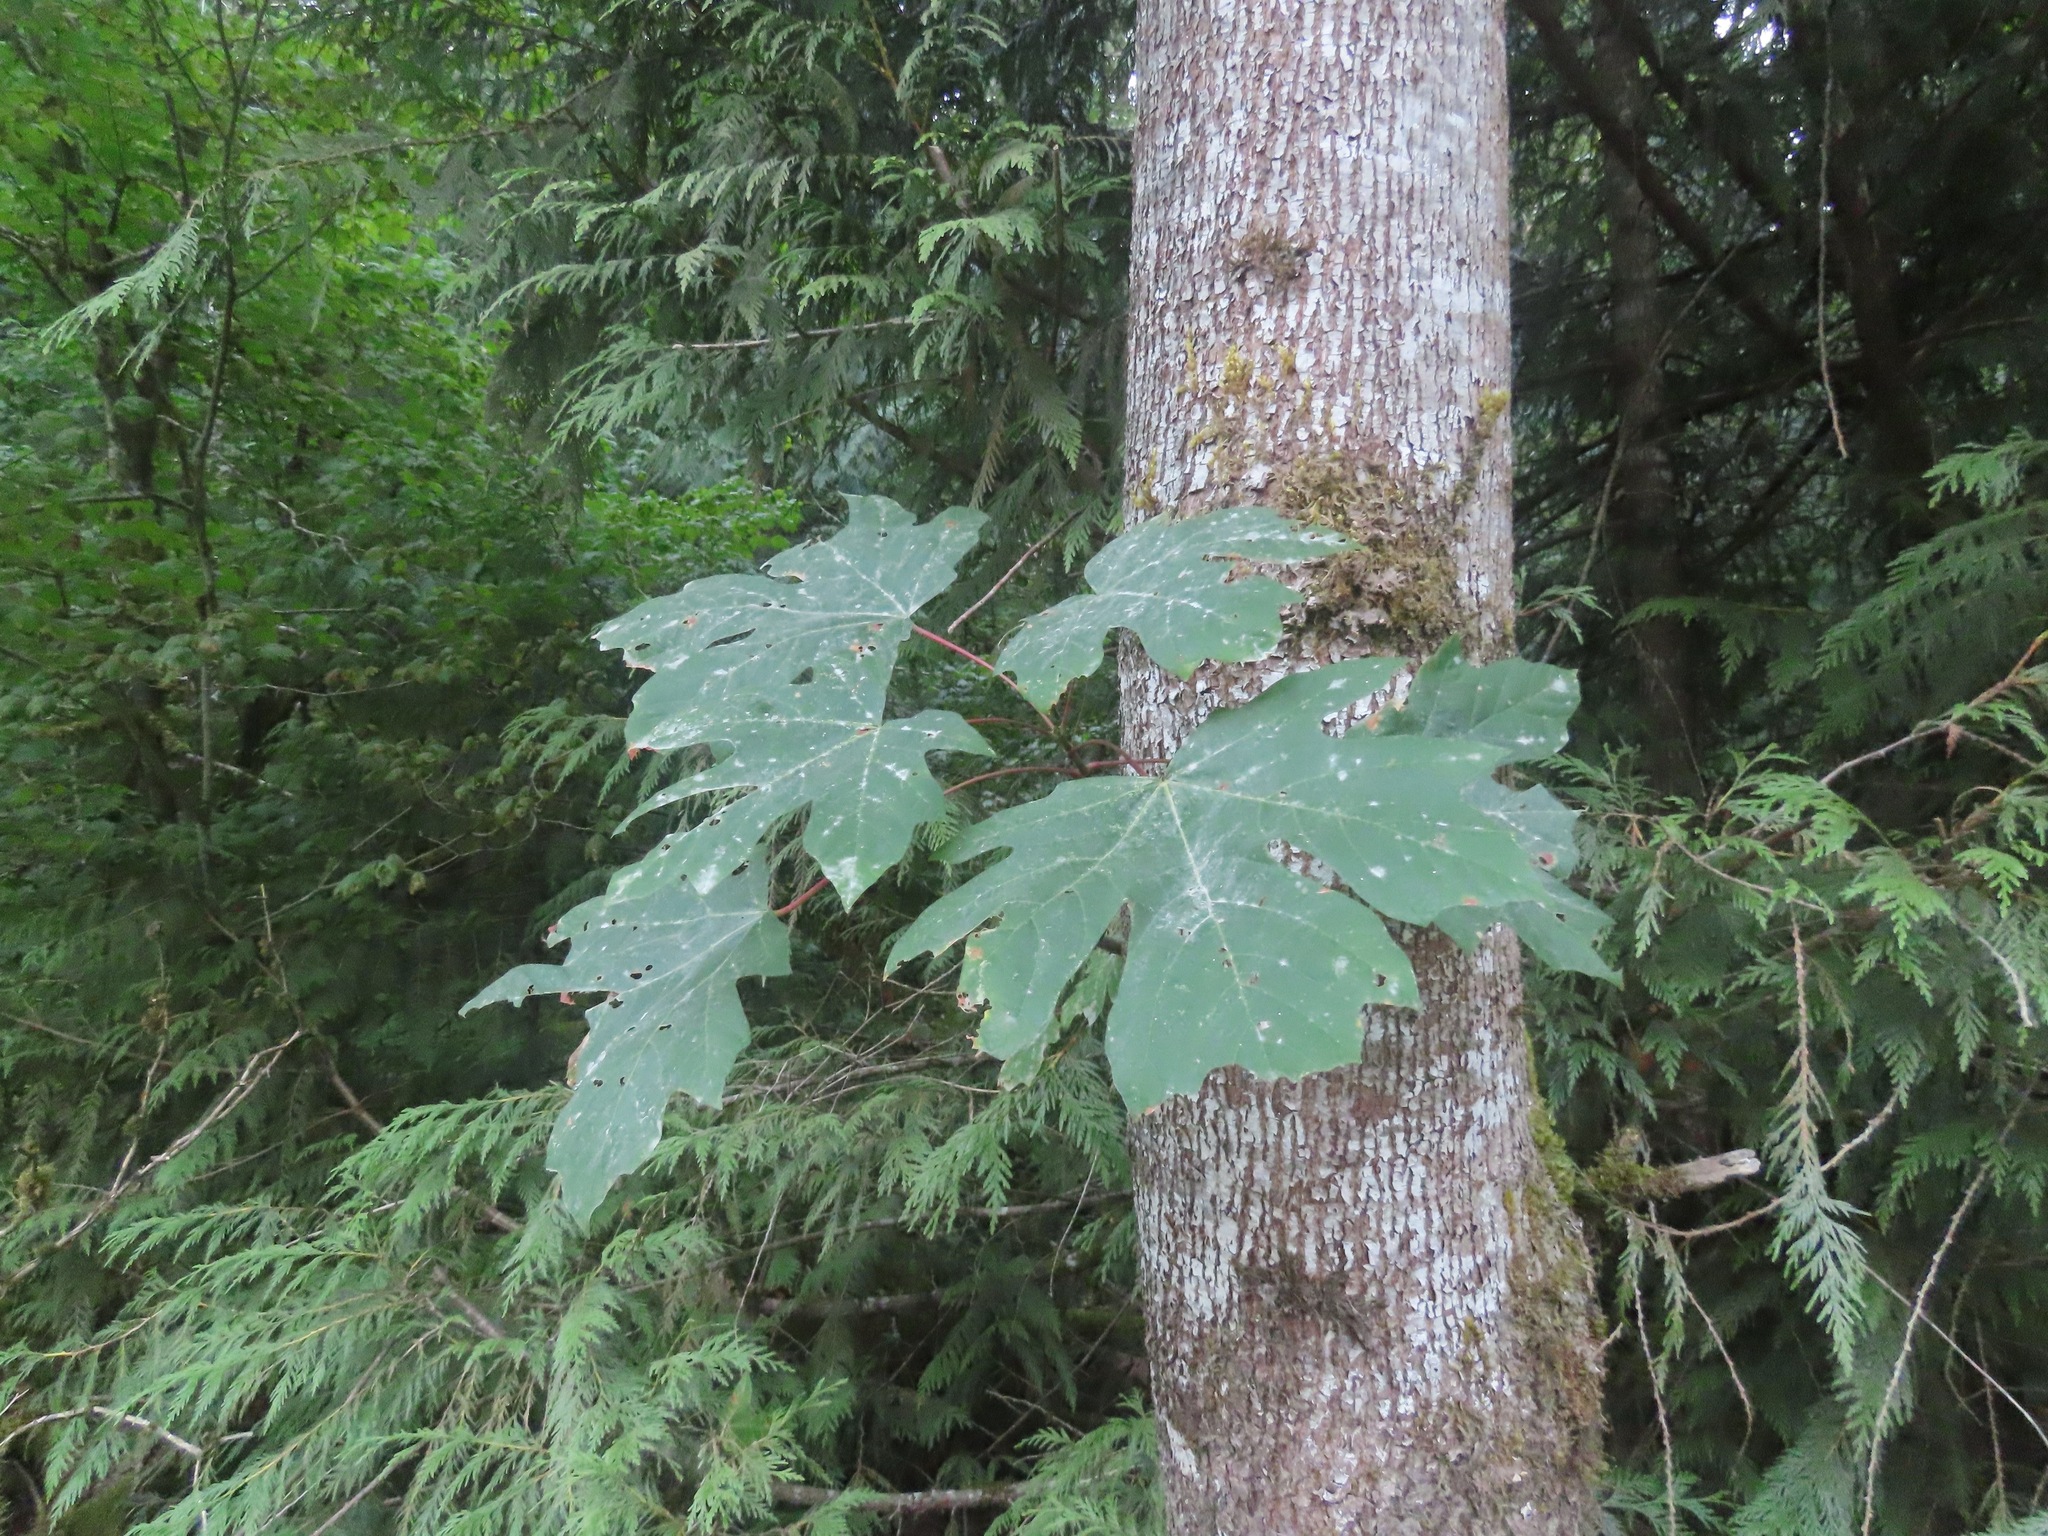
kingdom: Plantae
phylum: Tracheophyta
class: Magnoliopsida
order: Sapindales
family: Sapindaceae
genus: Acer
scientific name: Acer macrophyllum
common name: Oregon maple
